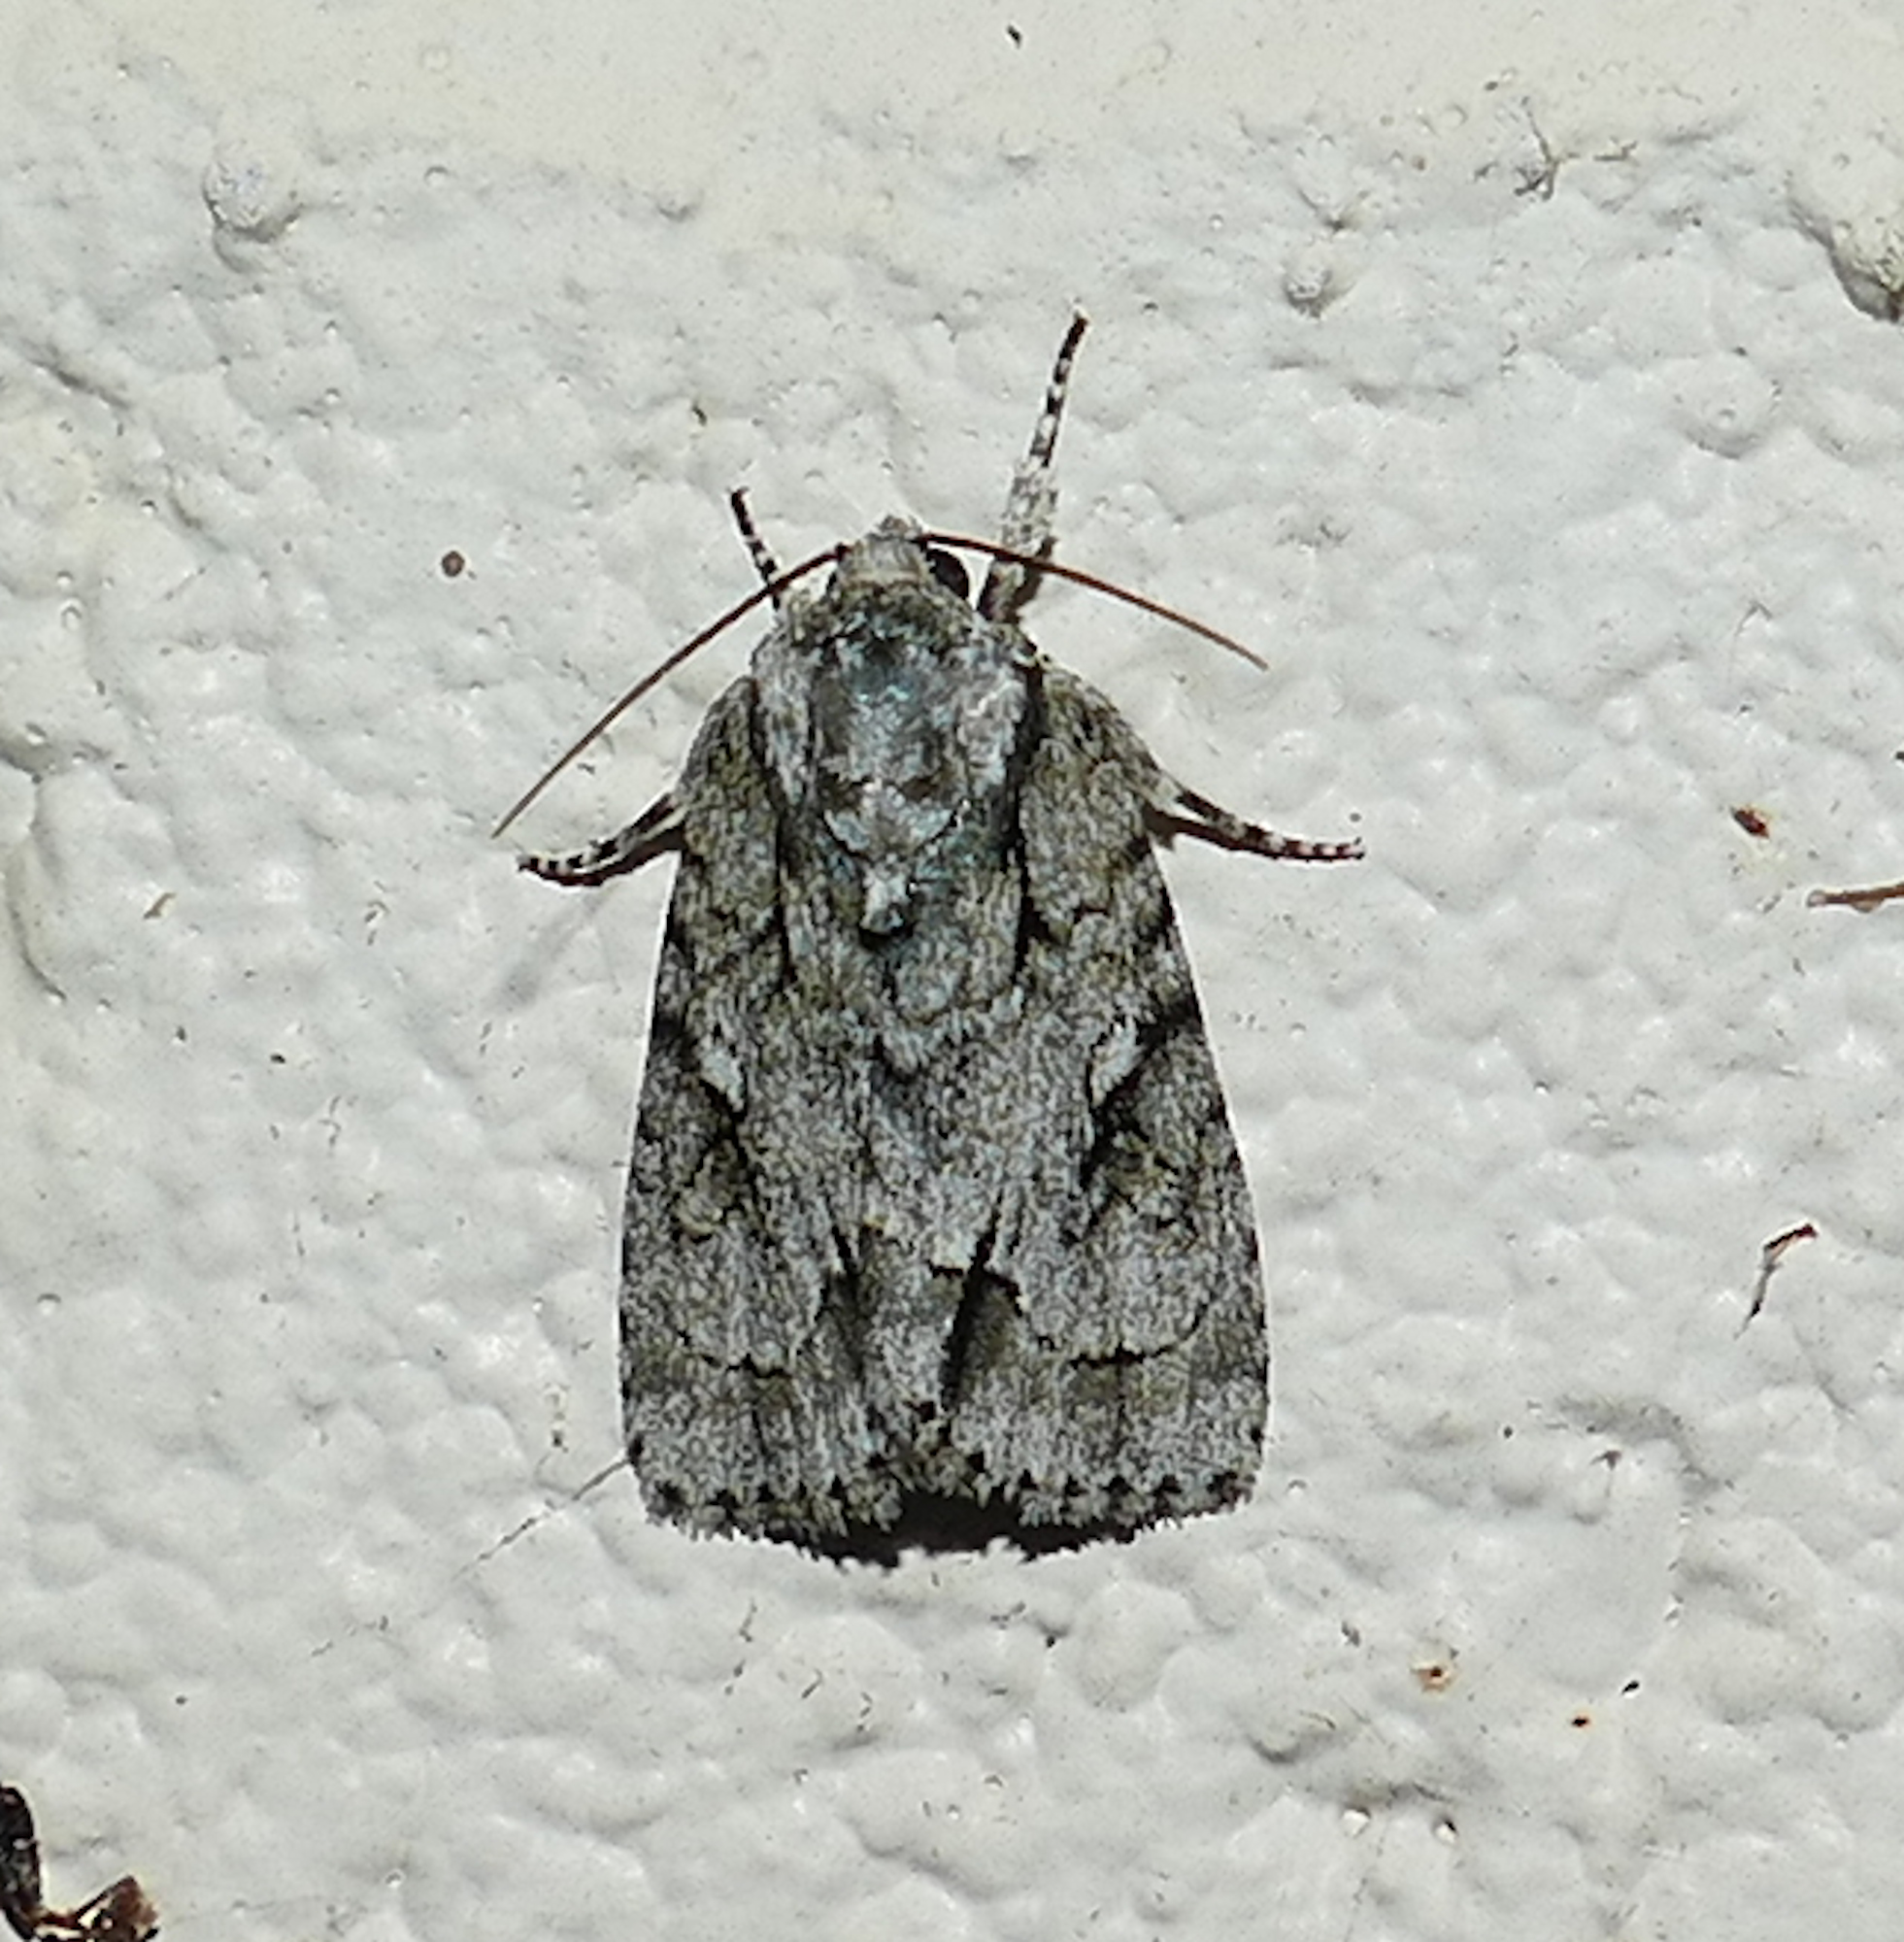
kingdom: Animalia
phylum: Arthropoda
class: Insecta
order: Lepidoptera
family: Noctuidae
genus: Acronicta
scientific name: Acronicta vinnula
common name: Delightful dagger
